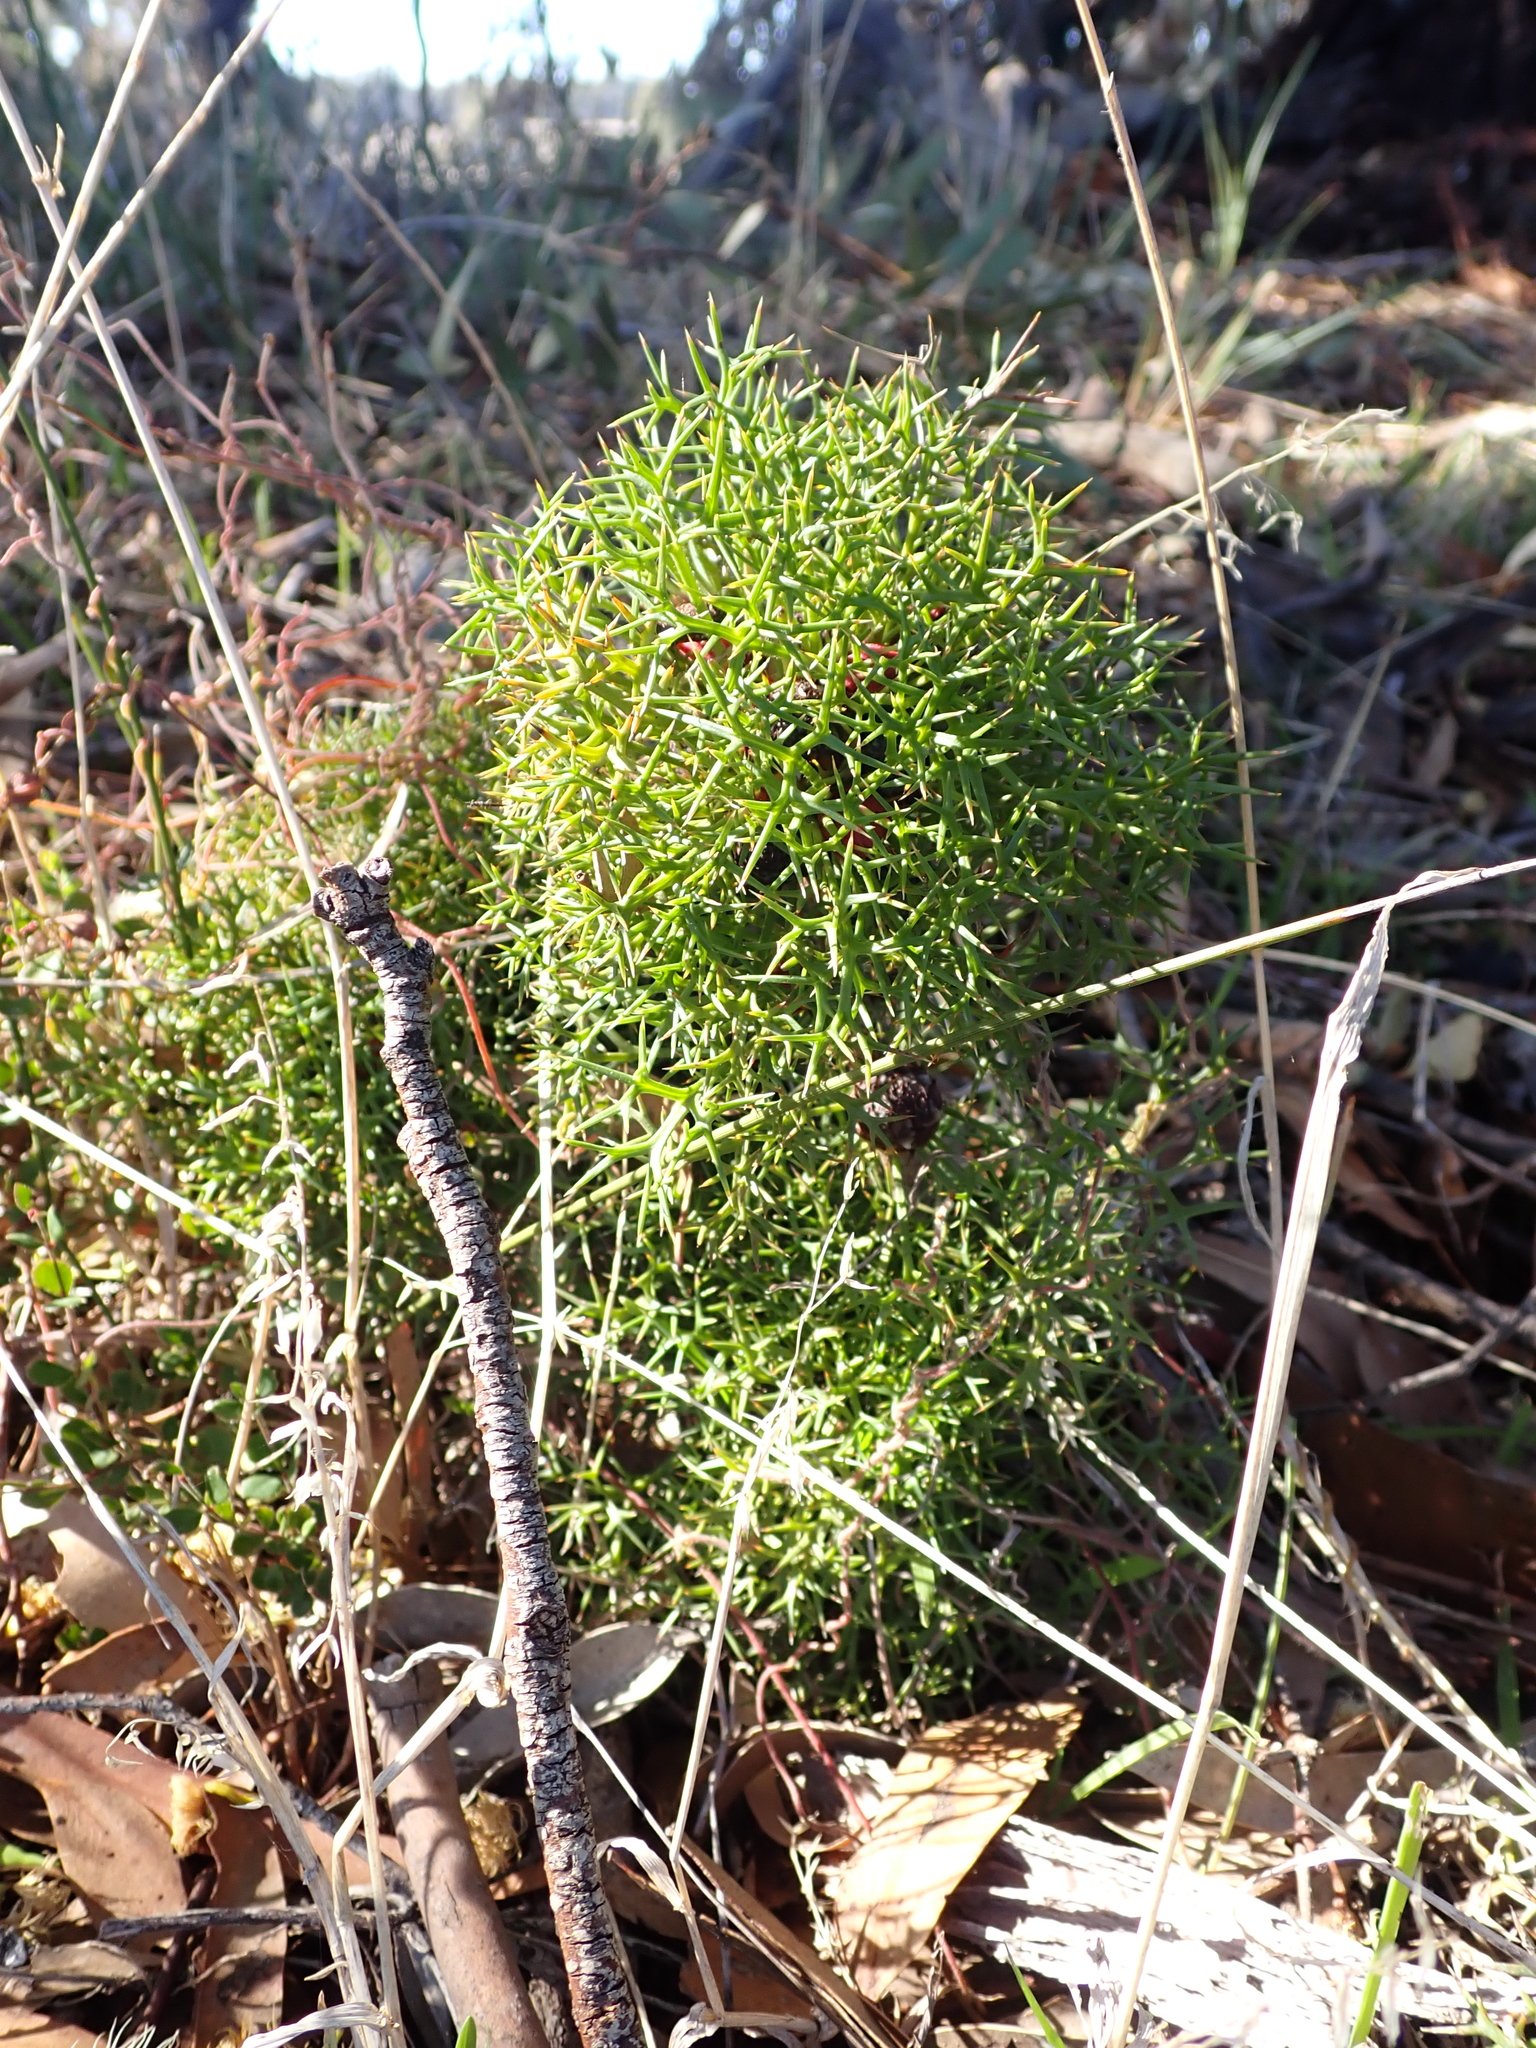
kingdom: Plantae
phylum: Tracheophyta
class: Magnoliopsida
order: Proteales
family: Proteaceae
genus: Isopogon
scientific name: Isopogon ceratophyllus
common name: Horny cone-bush
